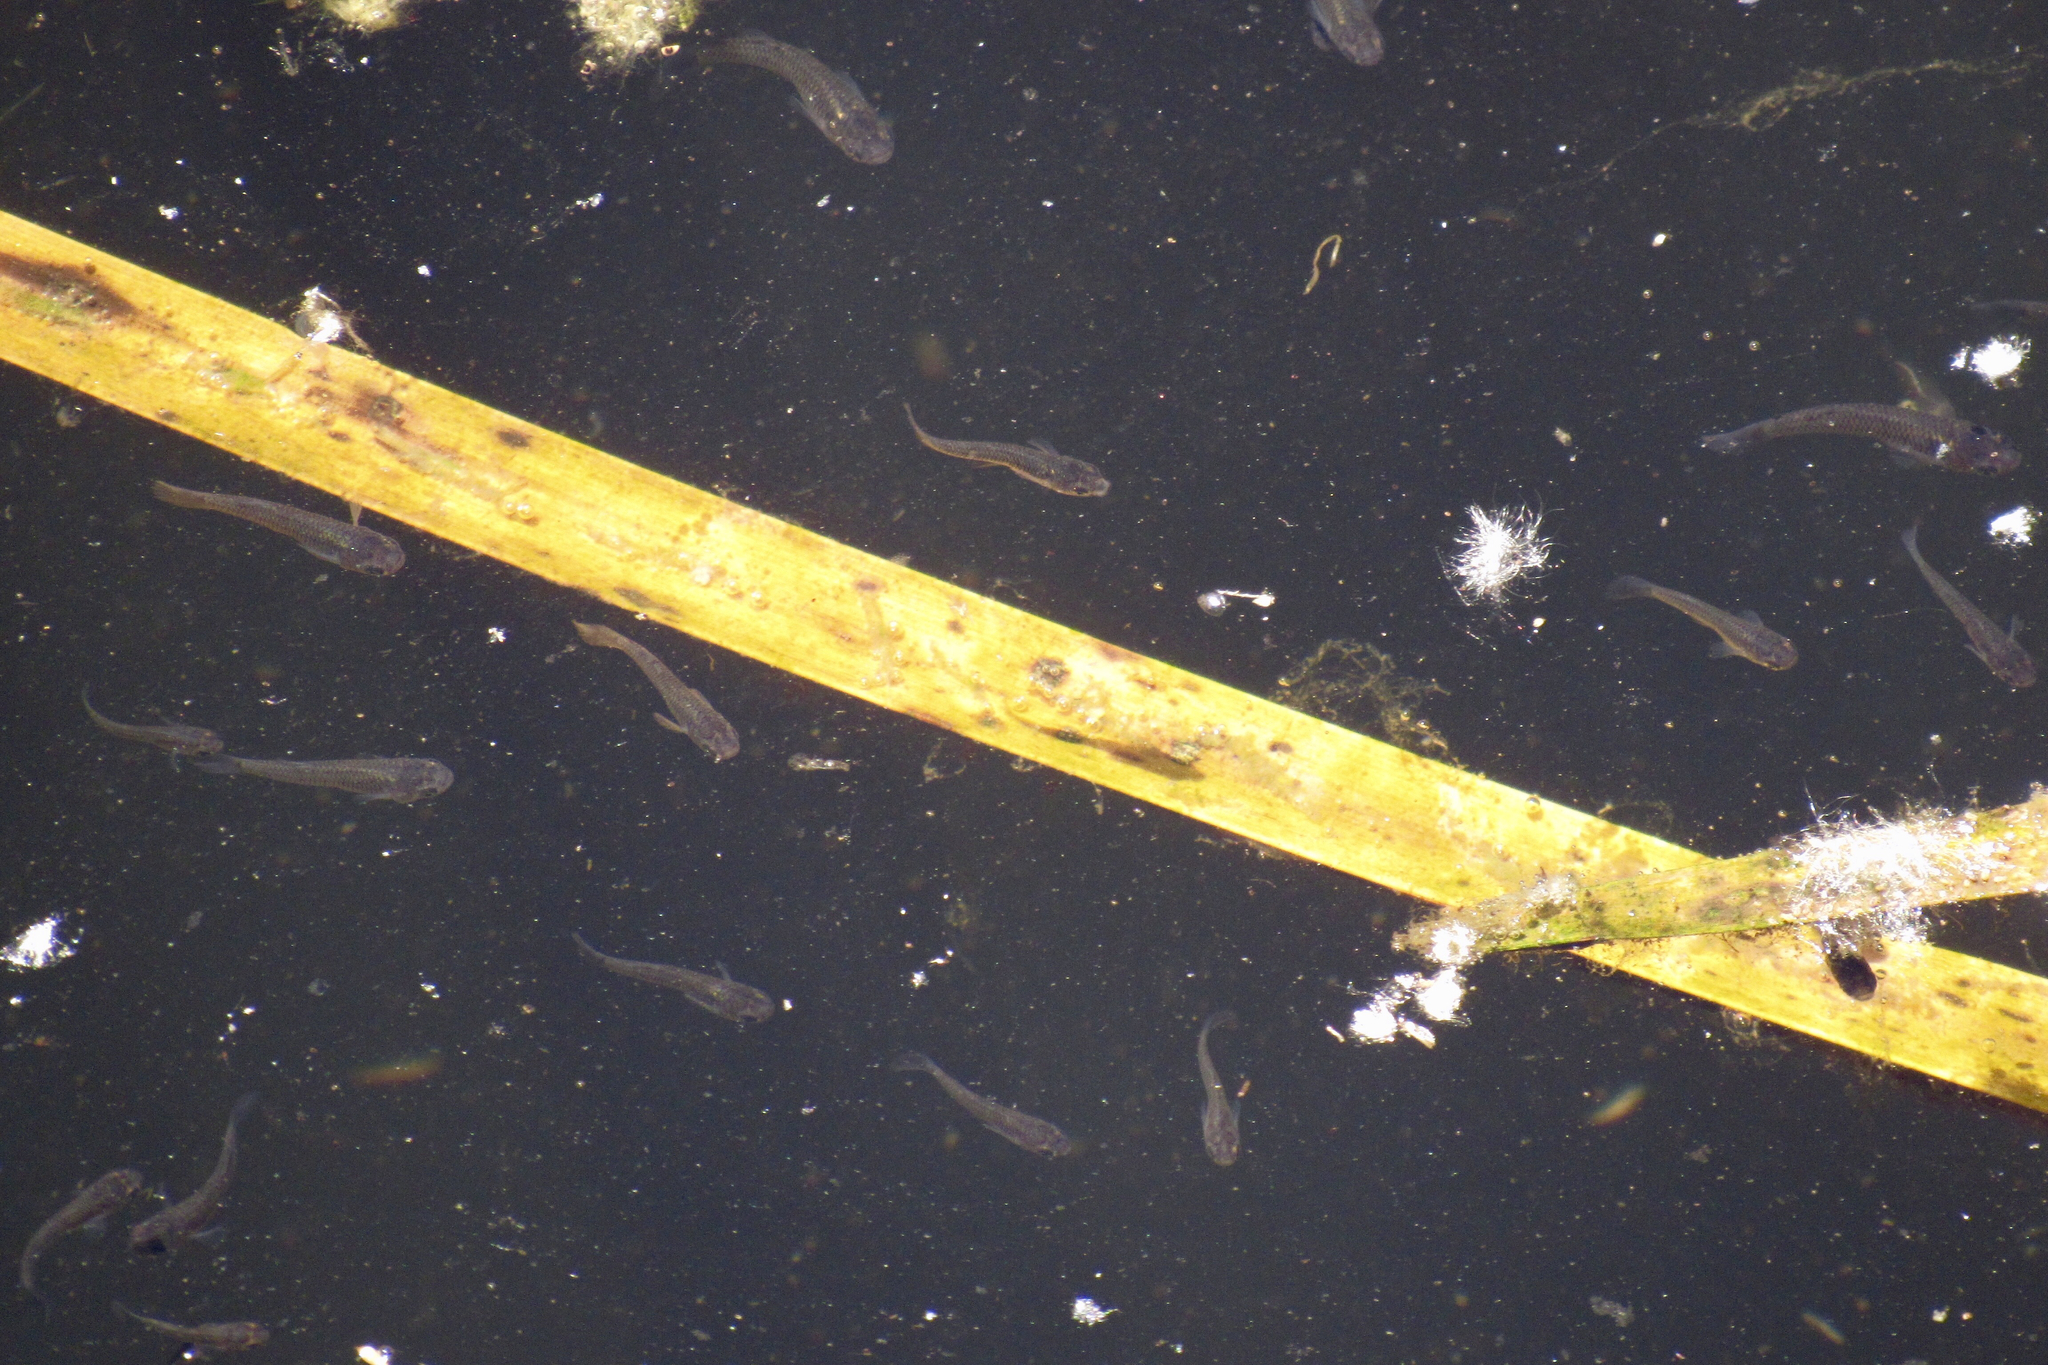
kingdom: Animalia
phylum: Chordata
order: Cyprinodontiformes
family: Poeciliidae
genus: Gambusia
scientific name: Gambusia affinis
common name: Mosquitofish
